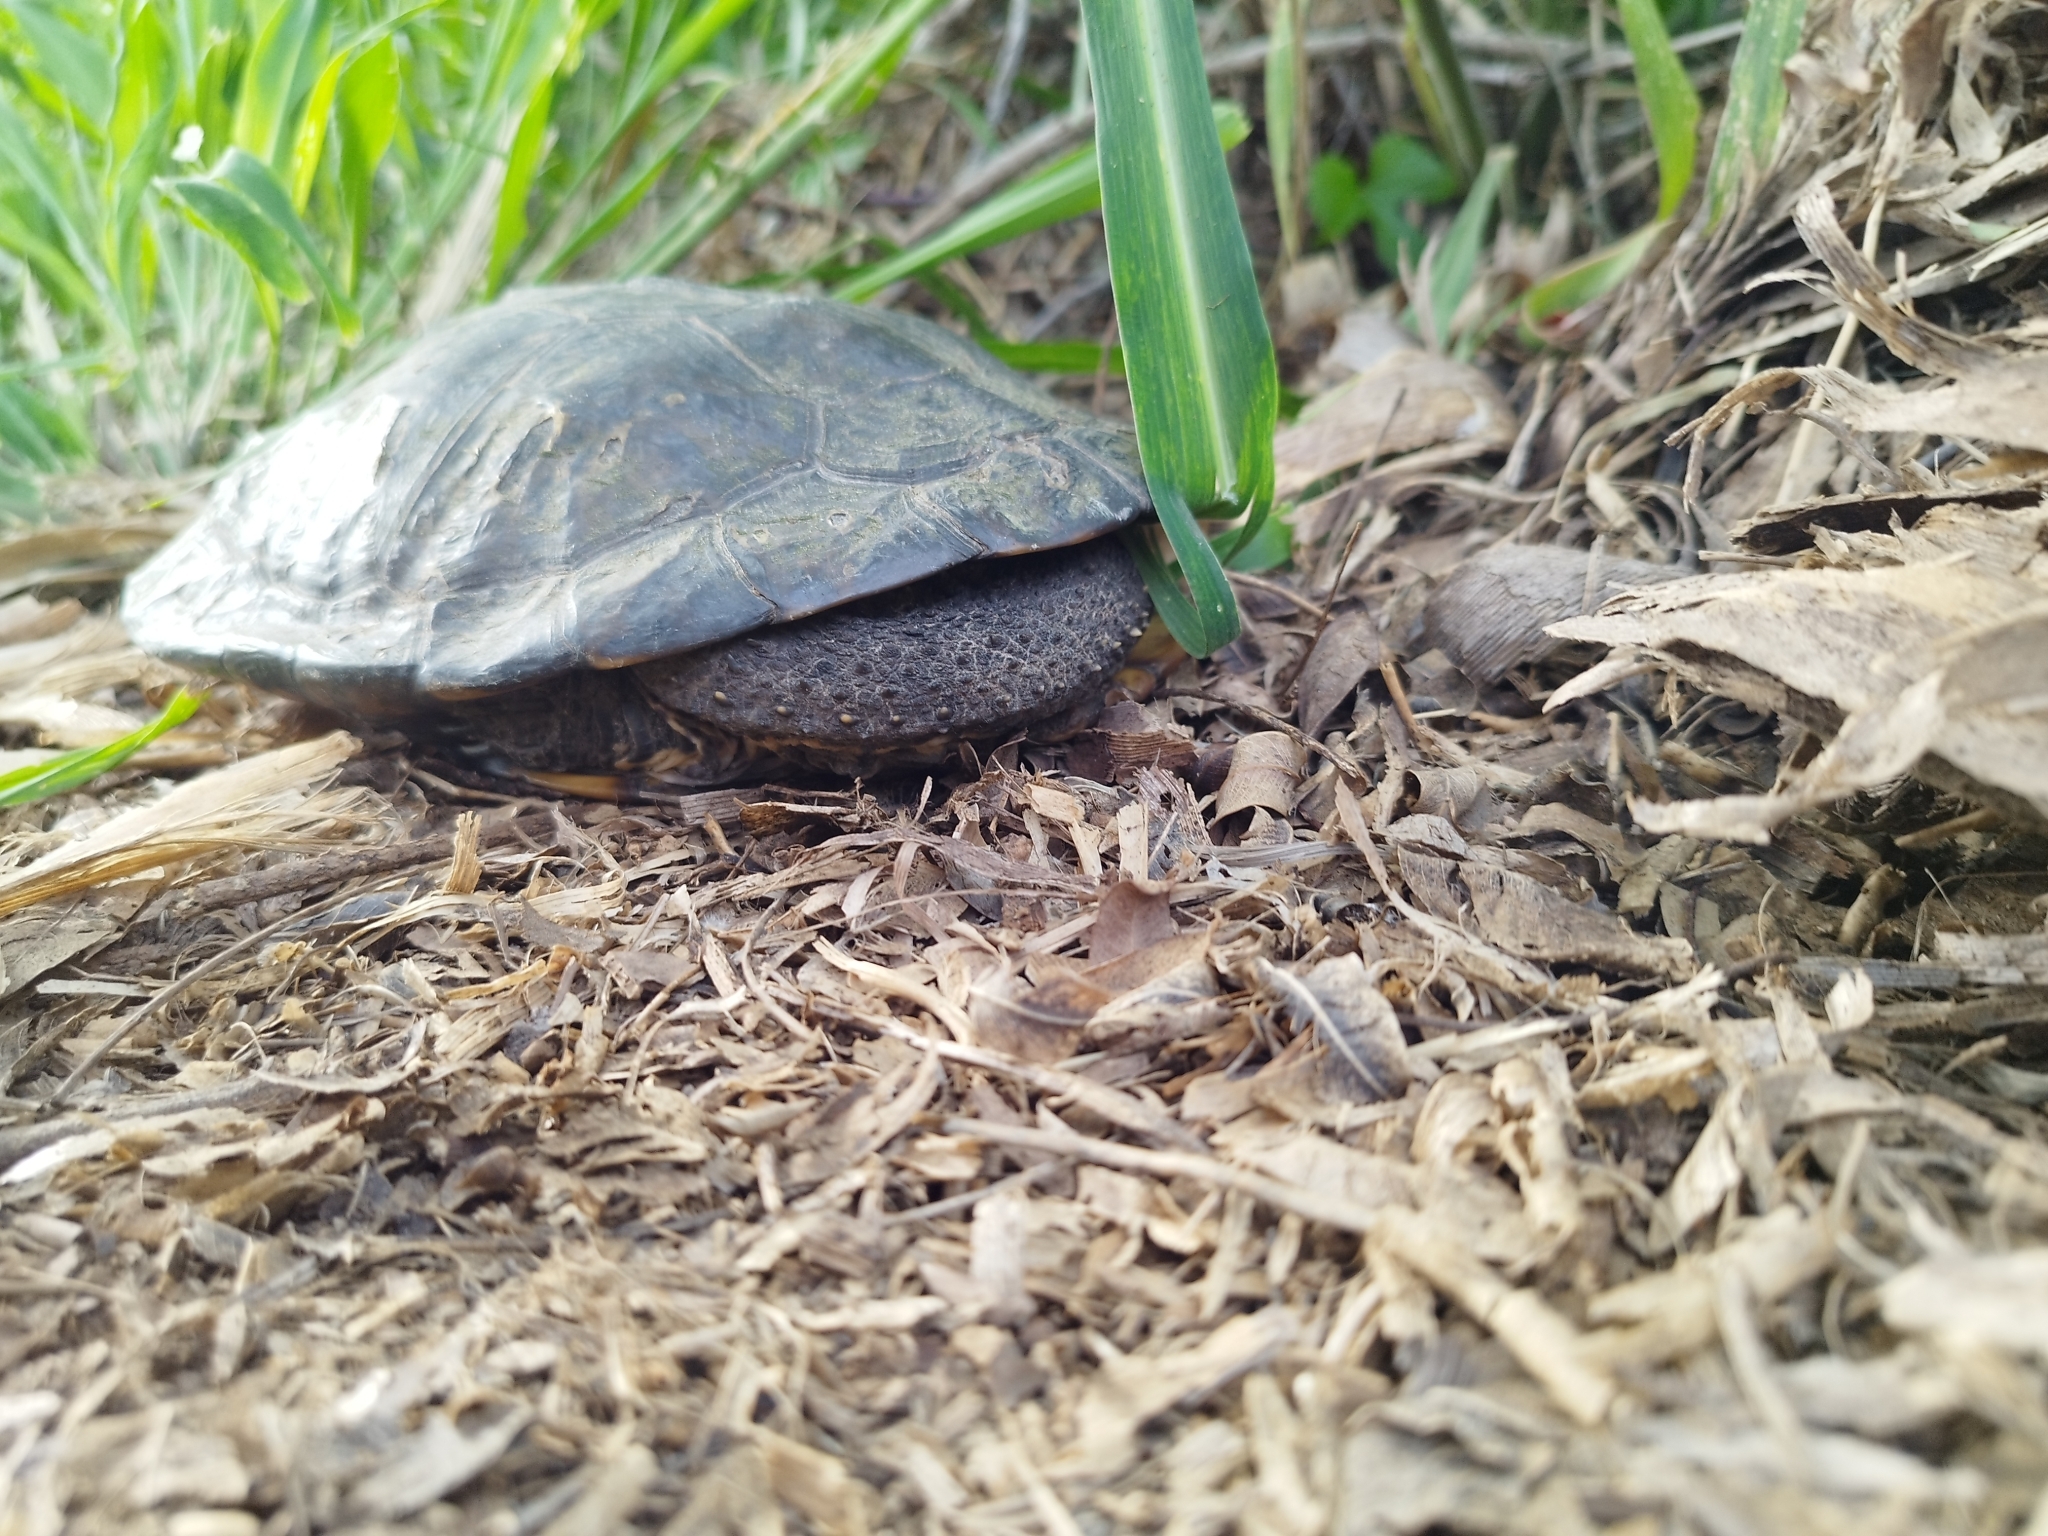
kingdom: Animalia
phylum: Chordata
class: Testudines
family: Chelidae
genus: Hydromedusa
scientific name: Hydromedusa tectifera
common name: Argentine snake-necked turtle
